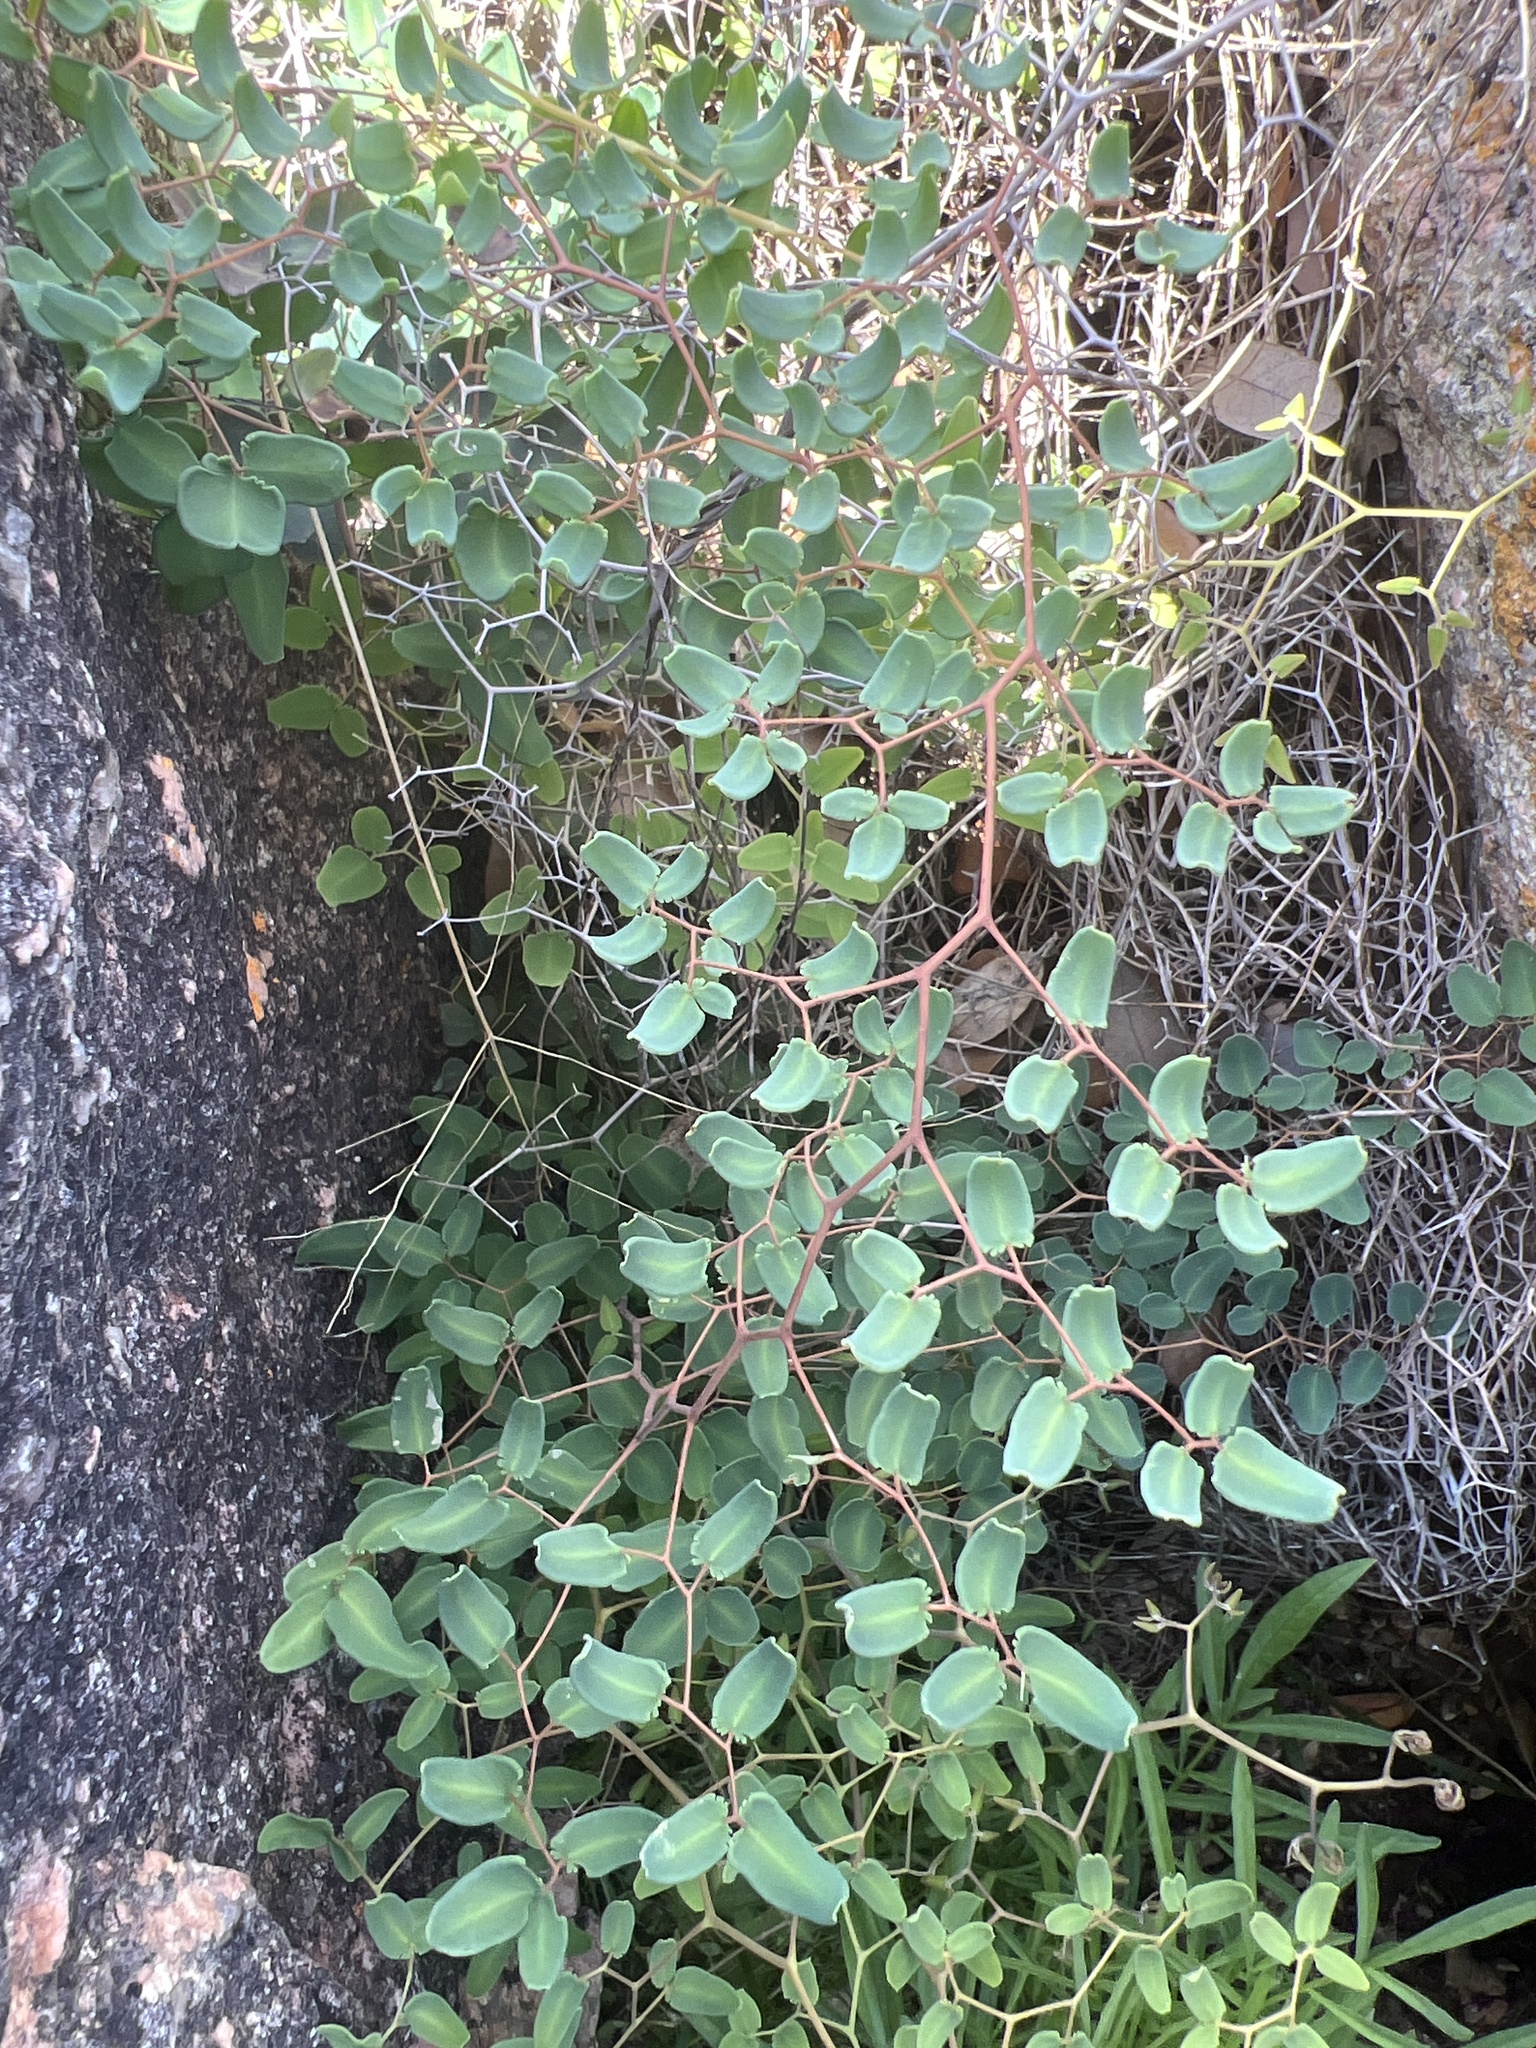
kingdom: Plantae
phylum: Tracheophyta
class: Polypodiopsida
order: Polypodiales
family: Pteridaceae
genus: Pellaea
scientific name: Pellaea ovata
